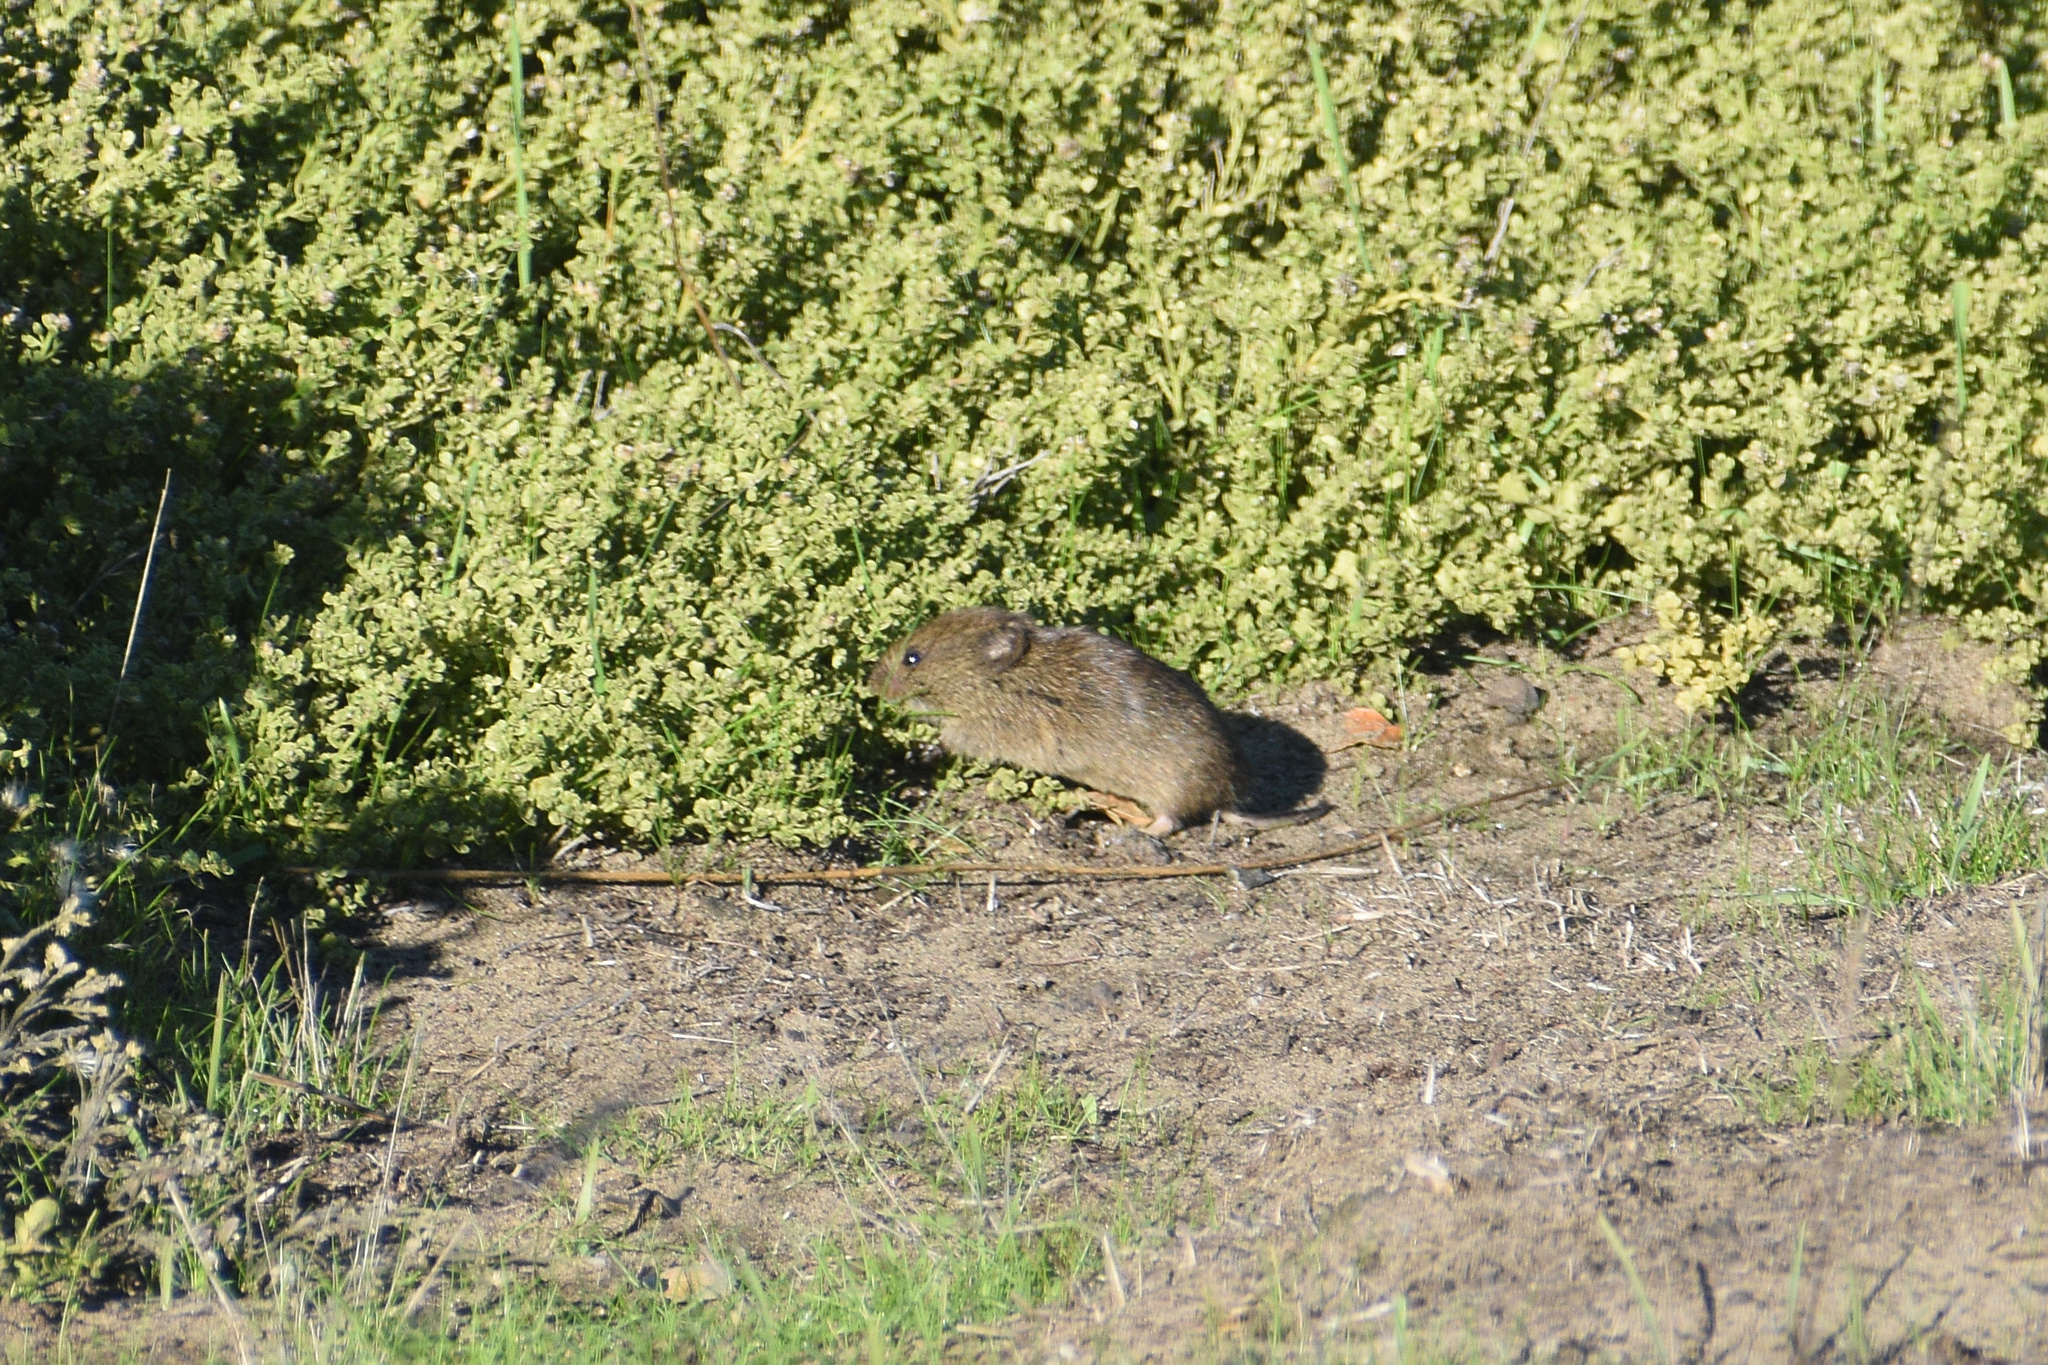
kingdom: Animalia
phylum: Chordata
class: Mammalia
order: Rodentia
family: Cricetidae
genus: Microtus
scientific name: Microtus californicus
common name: California vole
